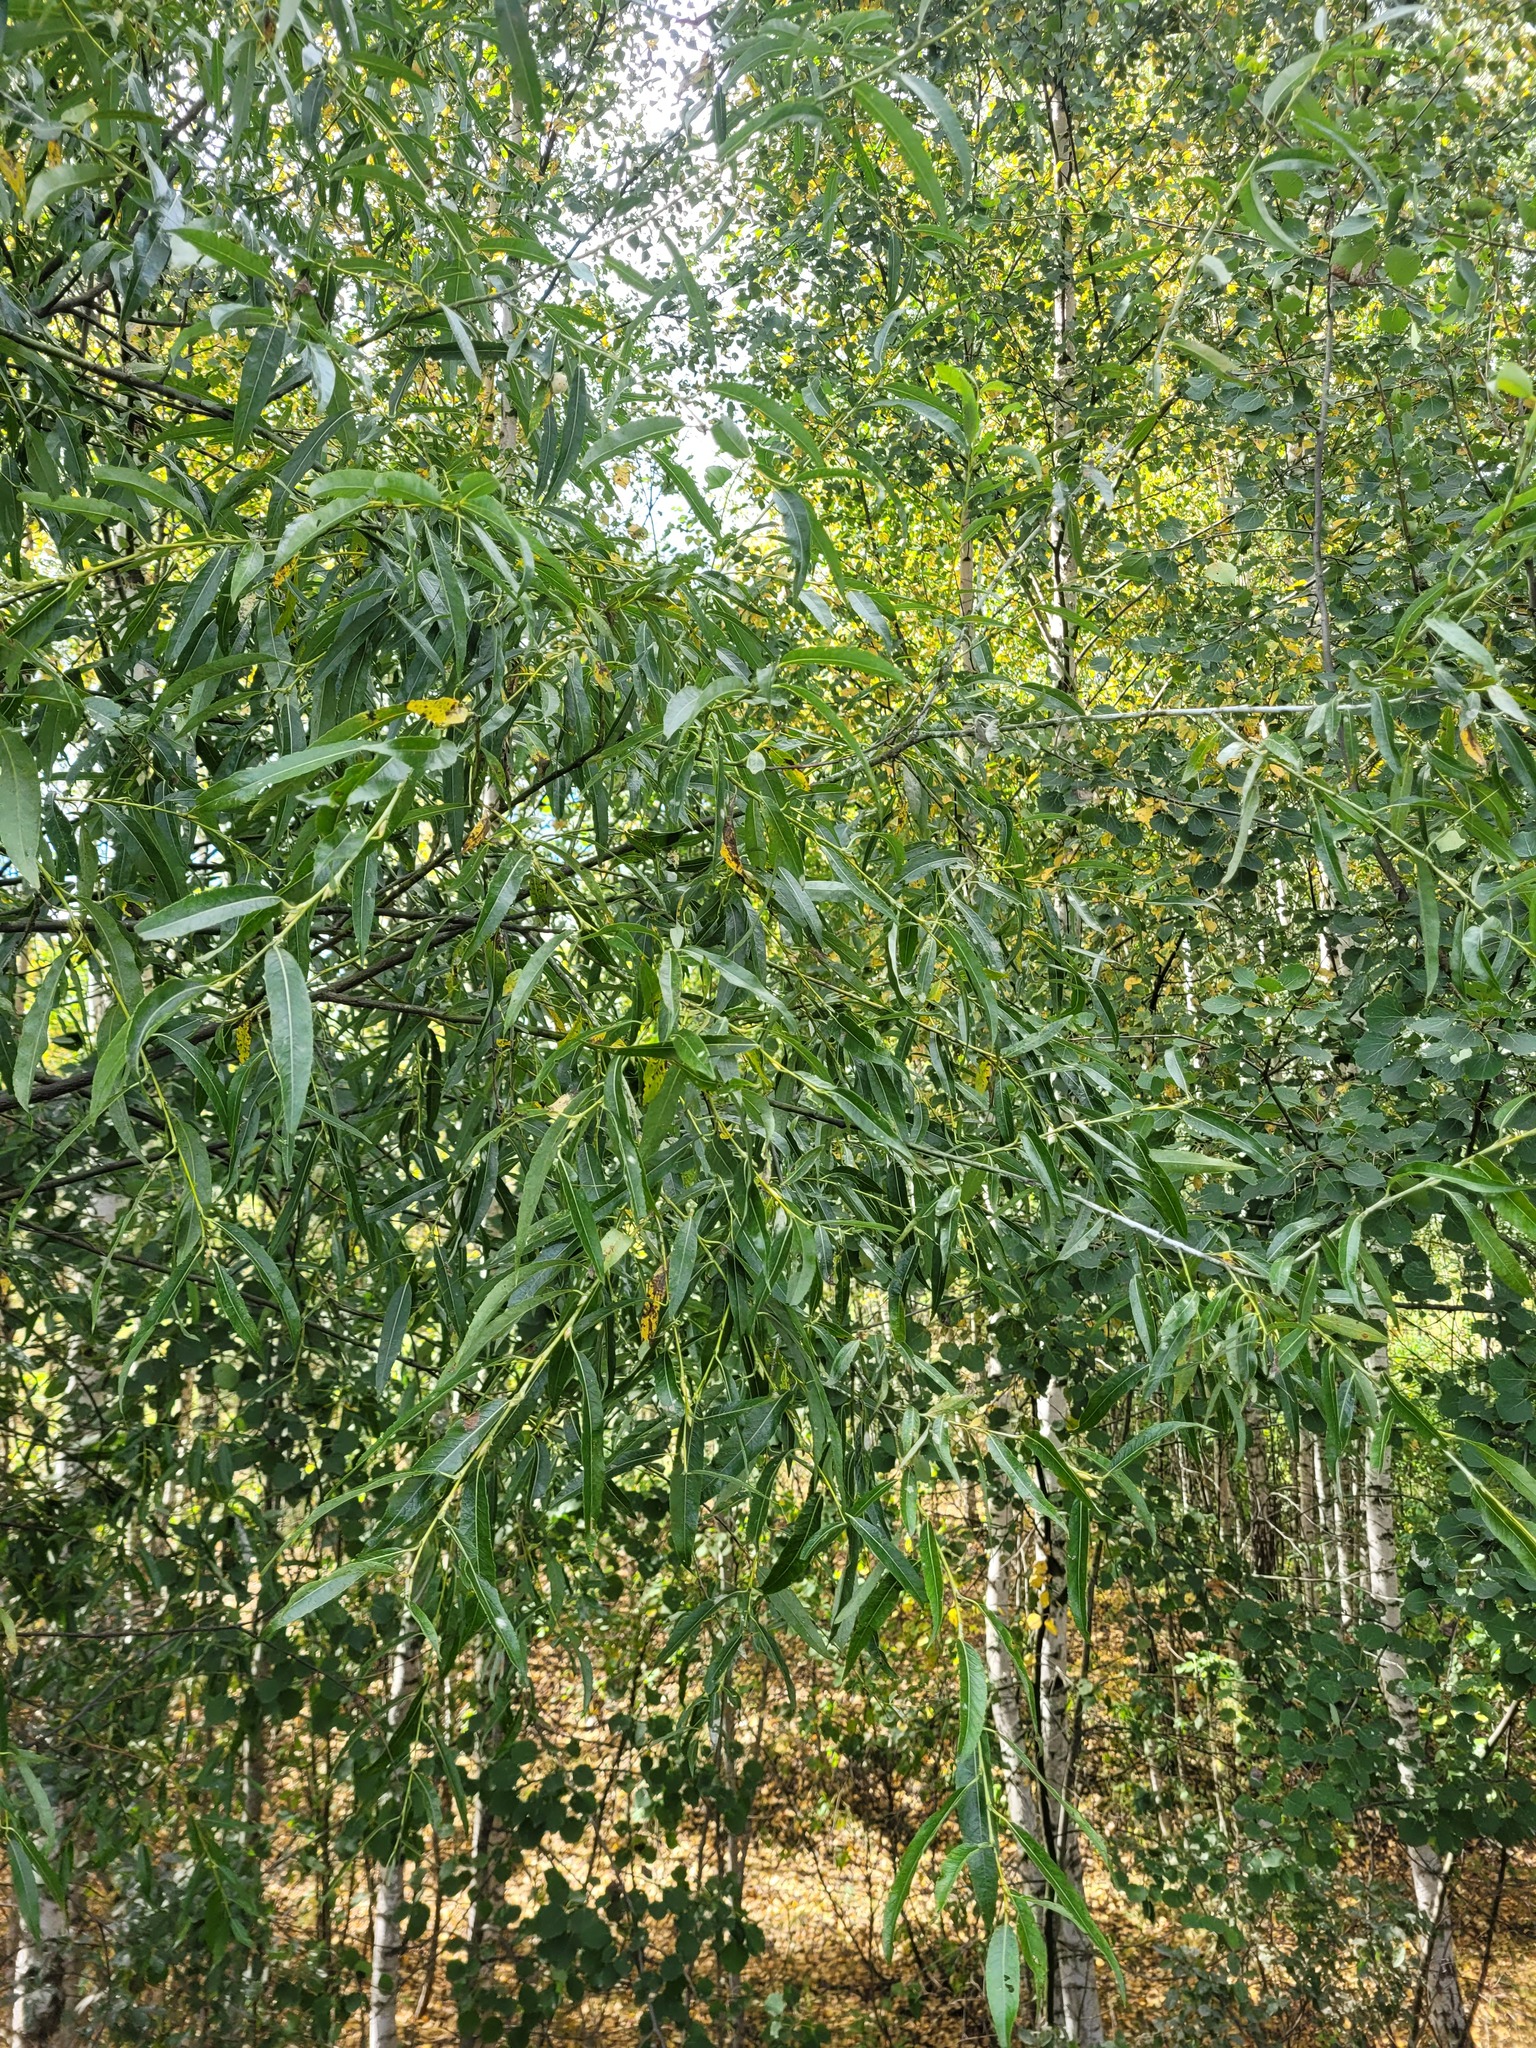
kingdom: Plantae
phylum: Tracheophyta
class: Magnoliopsida
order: Malpighiales
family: Salicaceae
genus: Salix
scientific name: Salix acutifolia
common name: Siberian violet-willow
